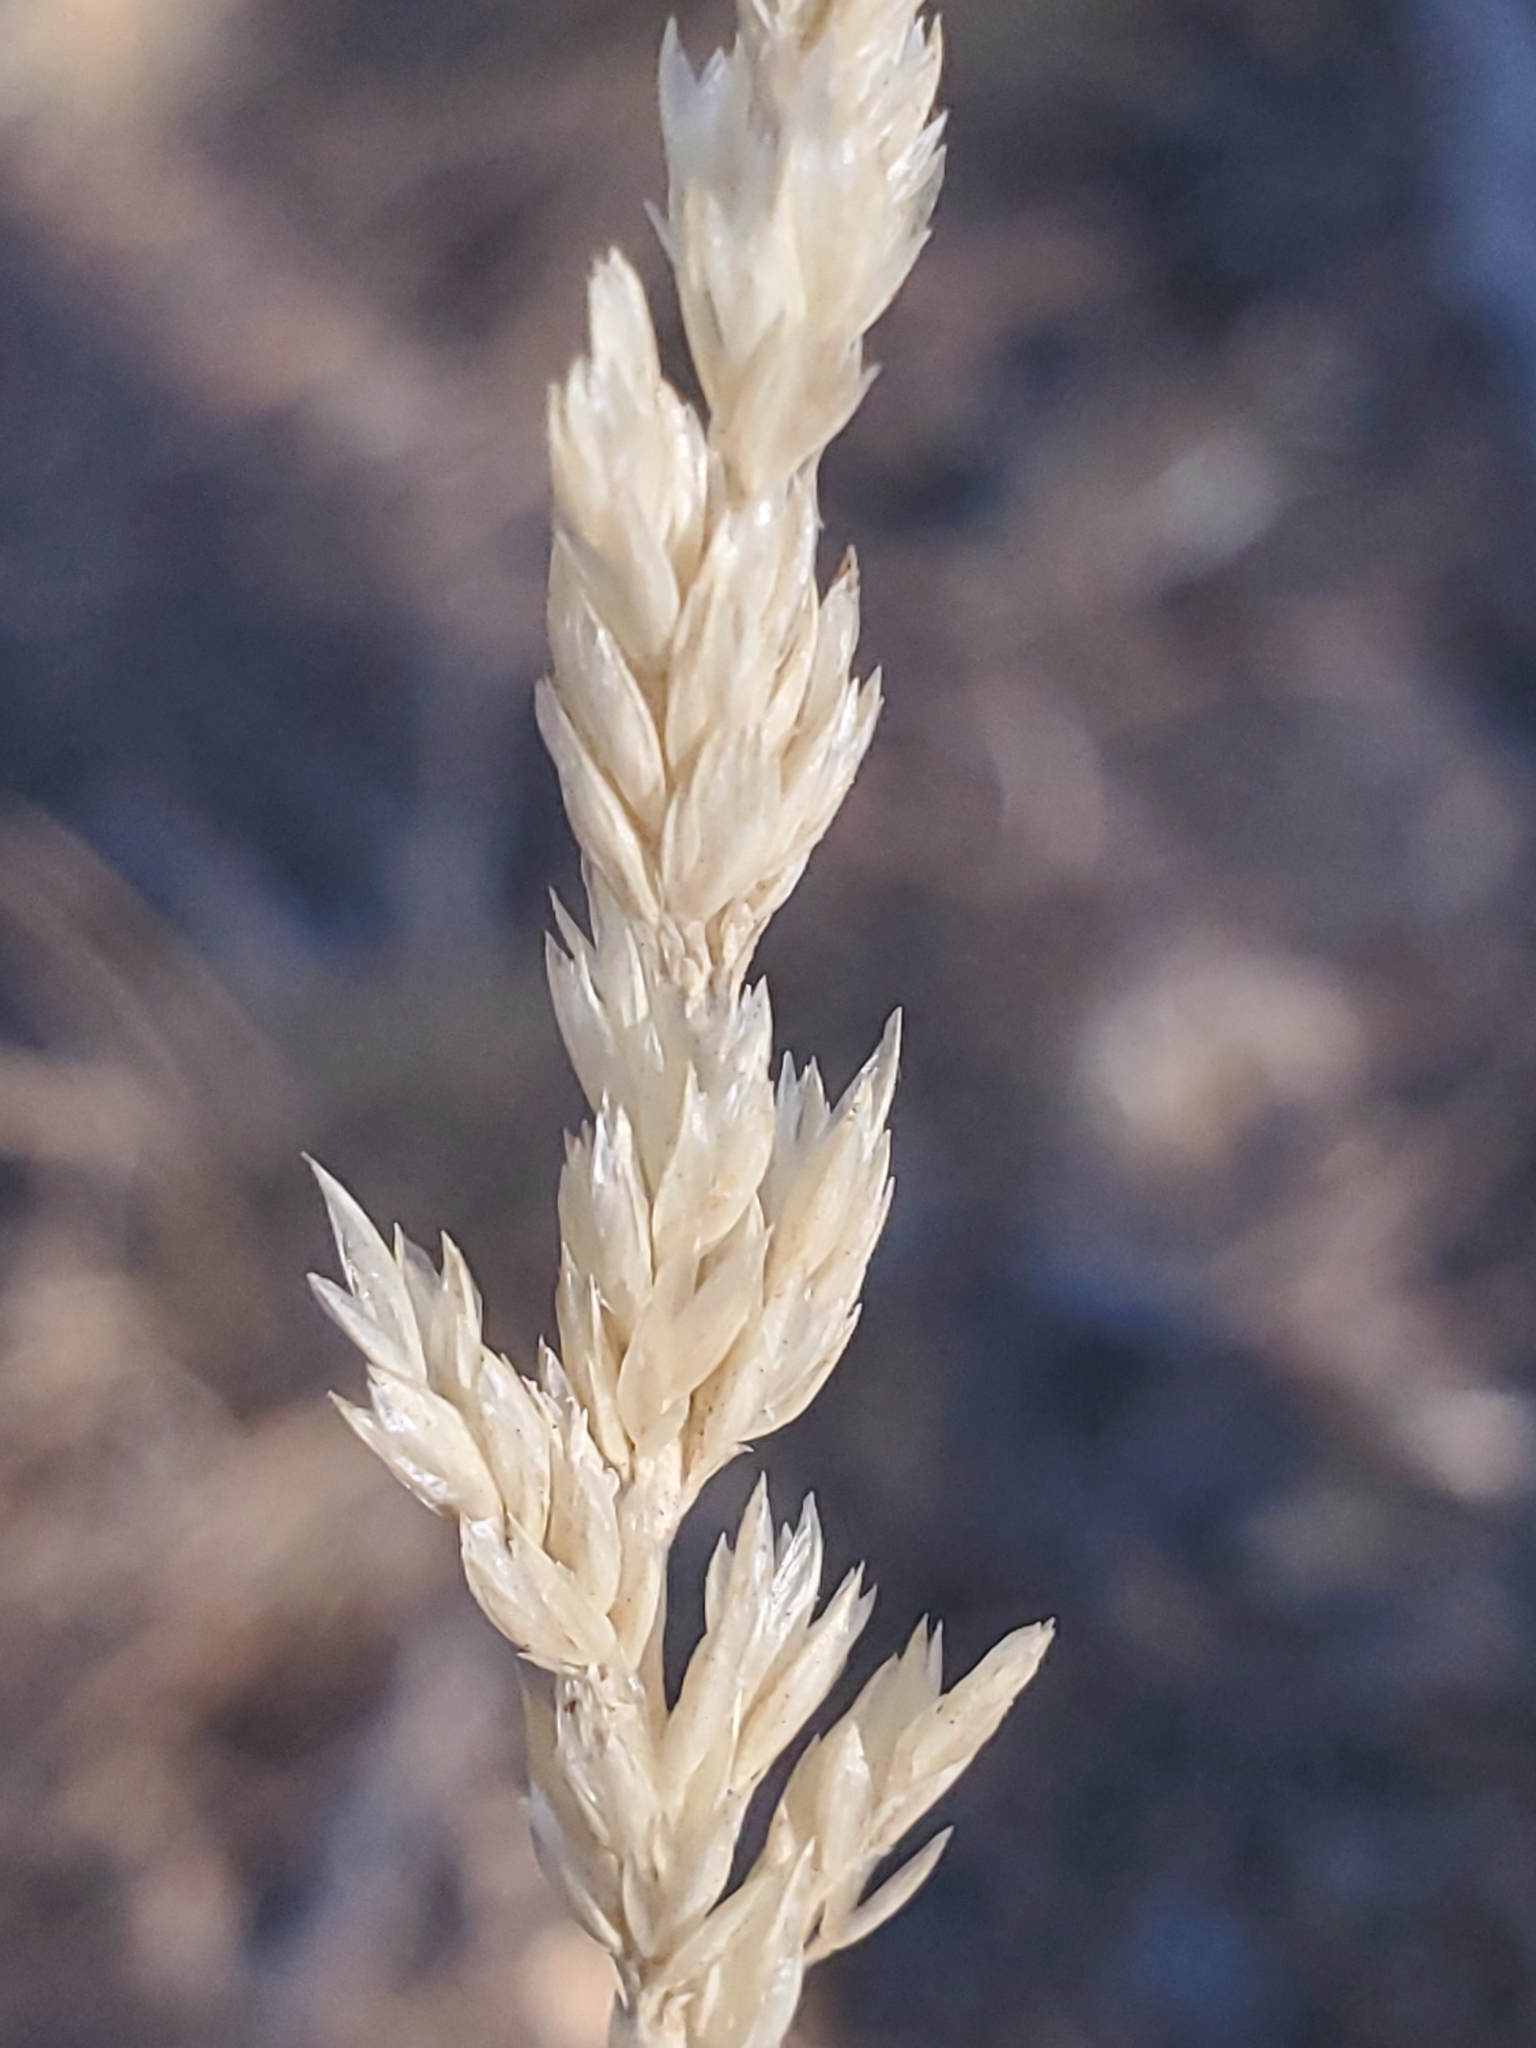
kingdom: Plantae
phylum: Tracheophyta
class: Liliopsida
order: Poales
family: Poaceae
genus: Koeleria
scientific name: Koeleria macrantha
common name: Crested hair-grass
